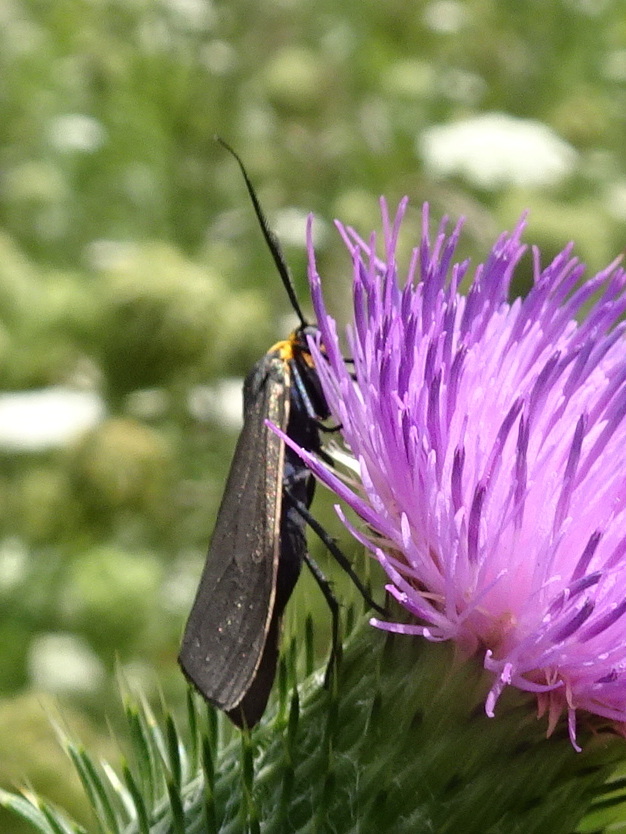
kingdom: Animalia
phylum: Arthropoda
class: Insecta
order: Lepidoptera
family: Erebidae
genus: Cisseps
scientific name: Cisseps fulvicollis
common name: Yellow-collared scape moth
